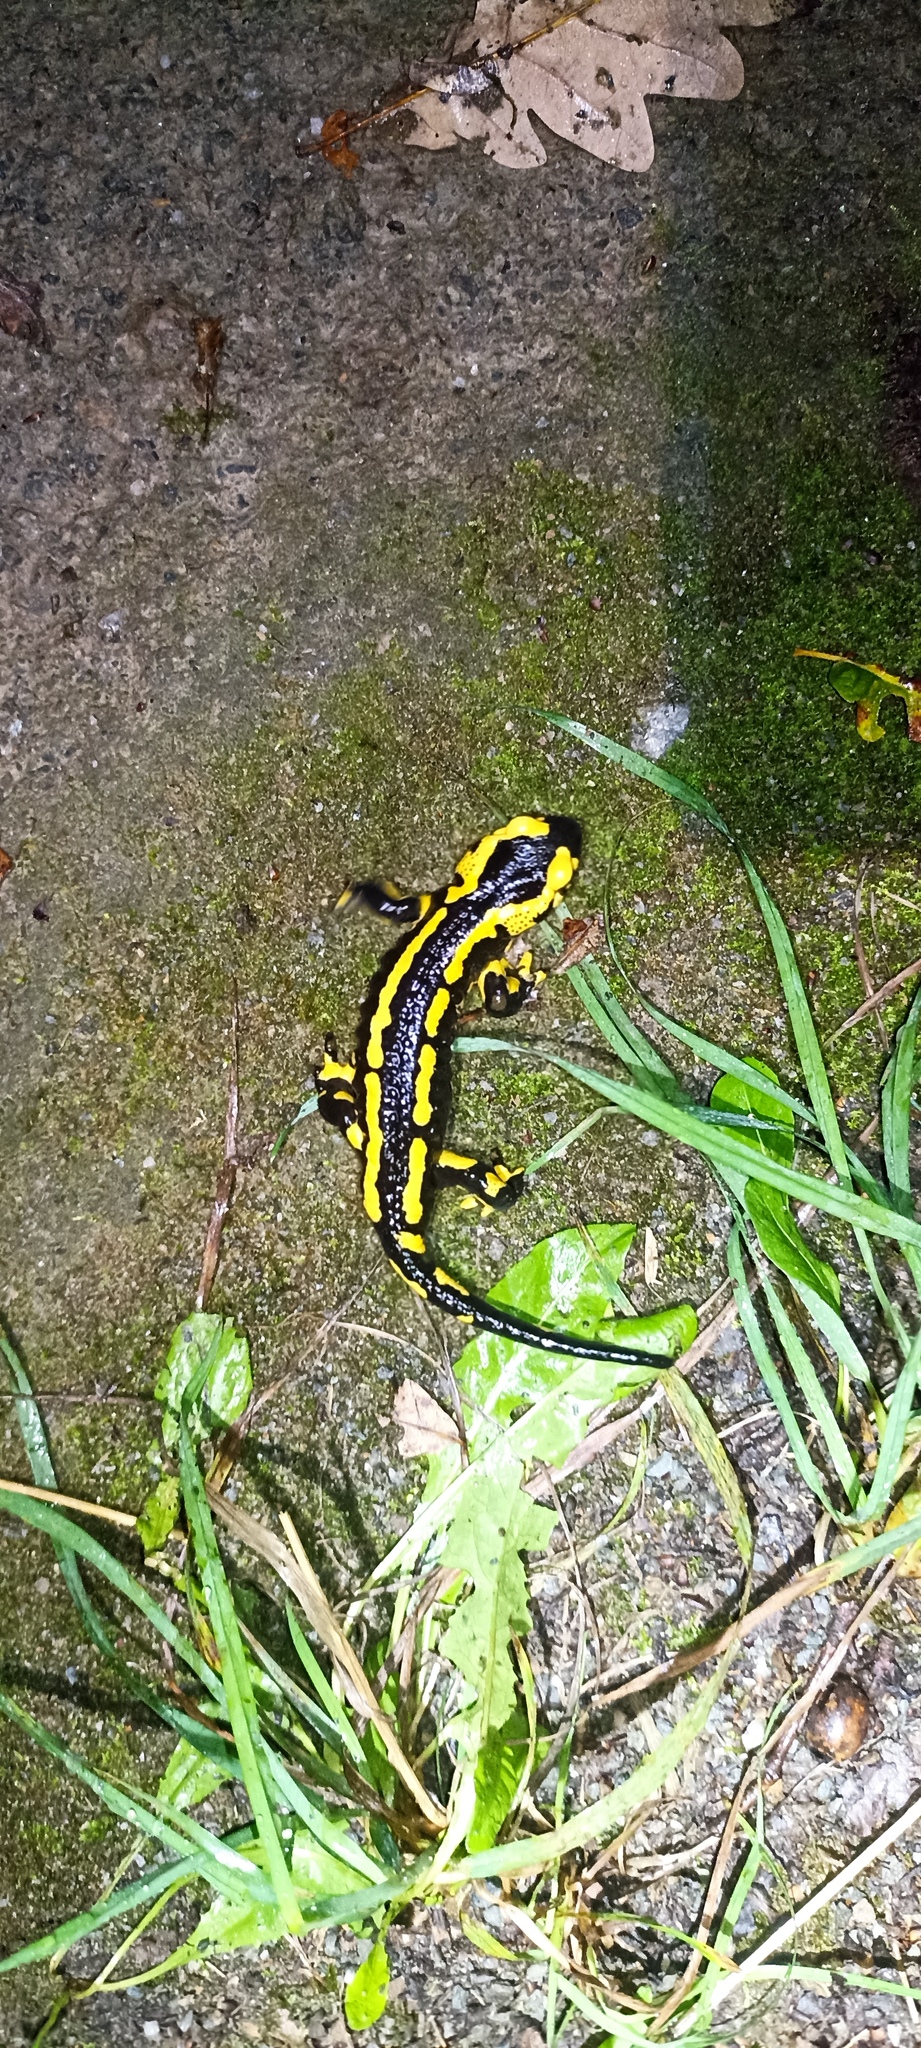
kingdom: Animalia
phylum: Chordata
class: Amphibia
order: Caudata
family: Salamandridae
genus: Salamandra
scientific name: Salamandra salamandra
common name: Fire salamander
